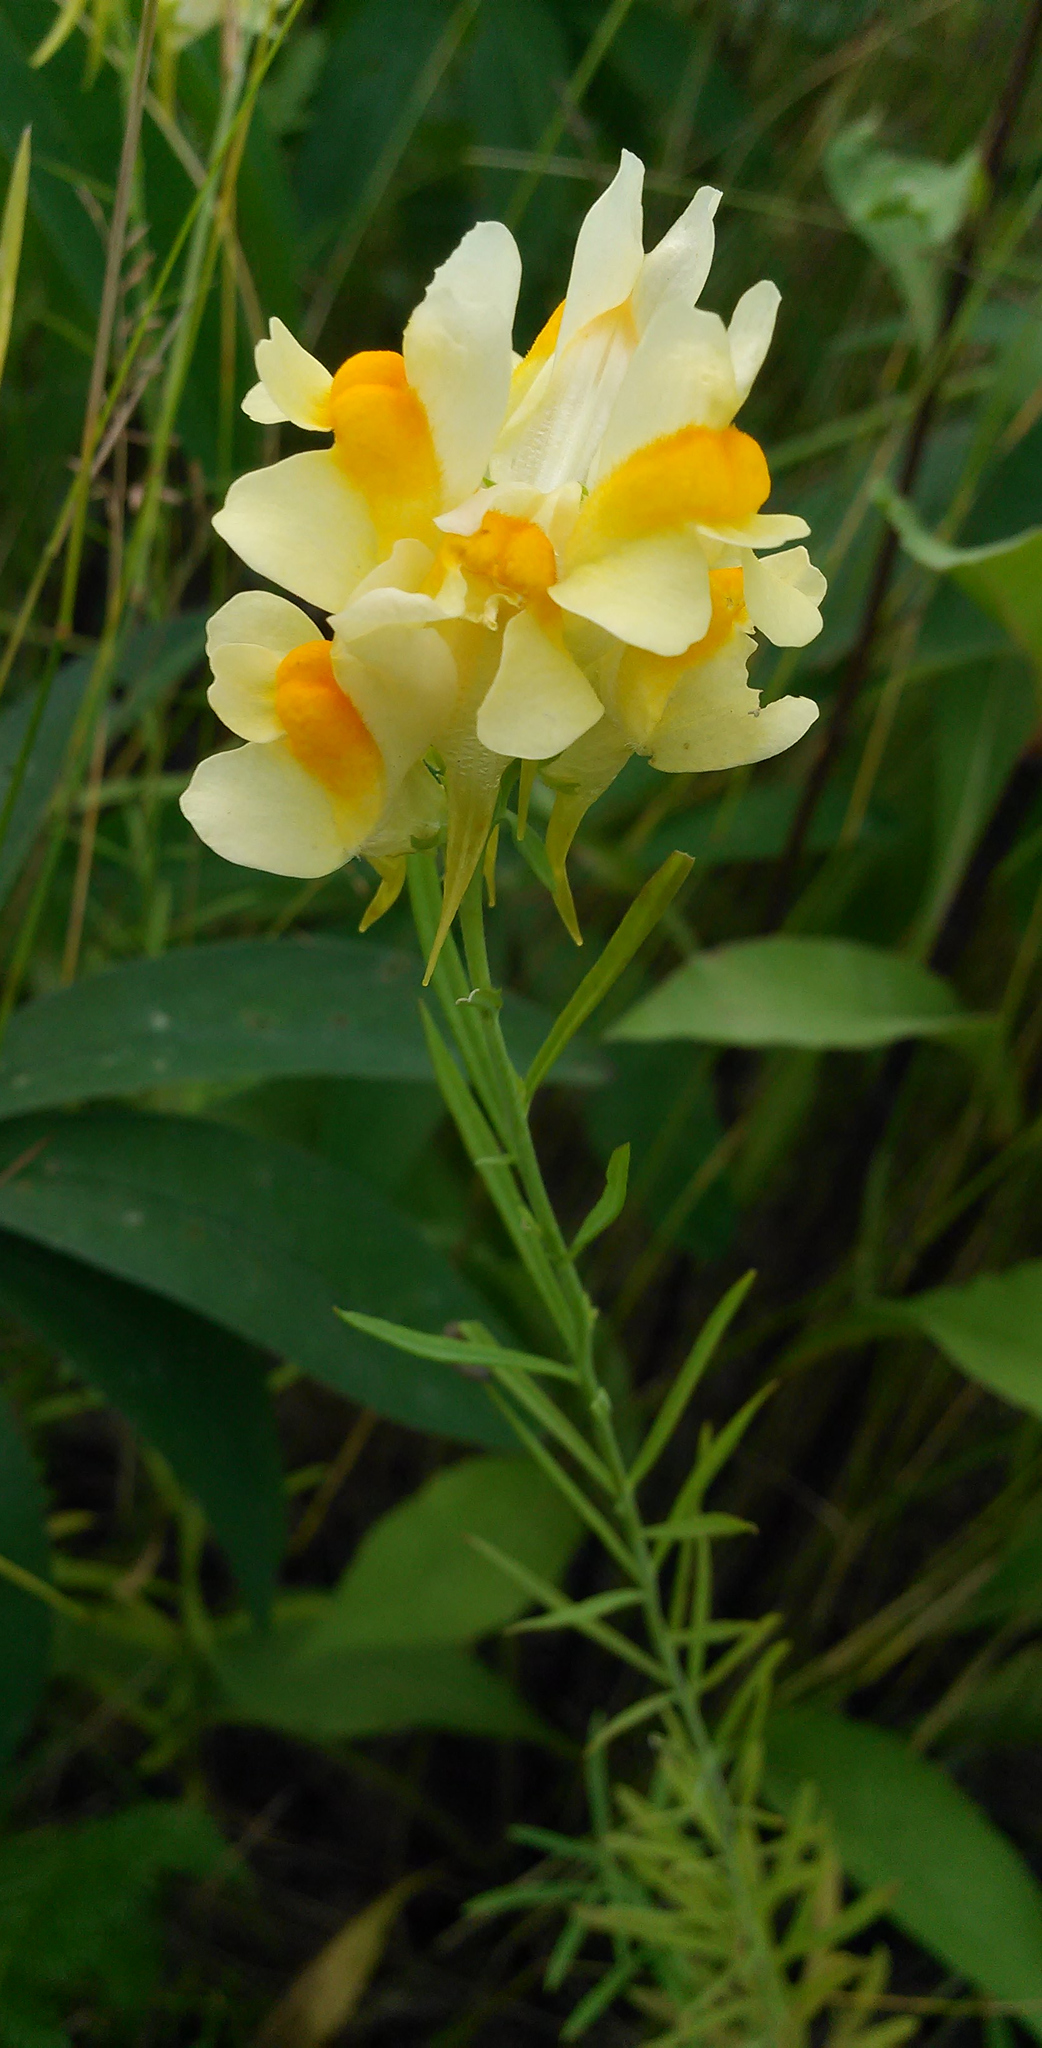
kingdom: Plantae
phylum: Tracheophyta
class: Magnoliopsida
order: Lamiales
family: Plantaginaceae
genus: Linaria
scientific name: Linaria vulgaris
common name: Butter and eggs
